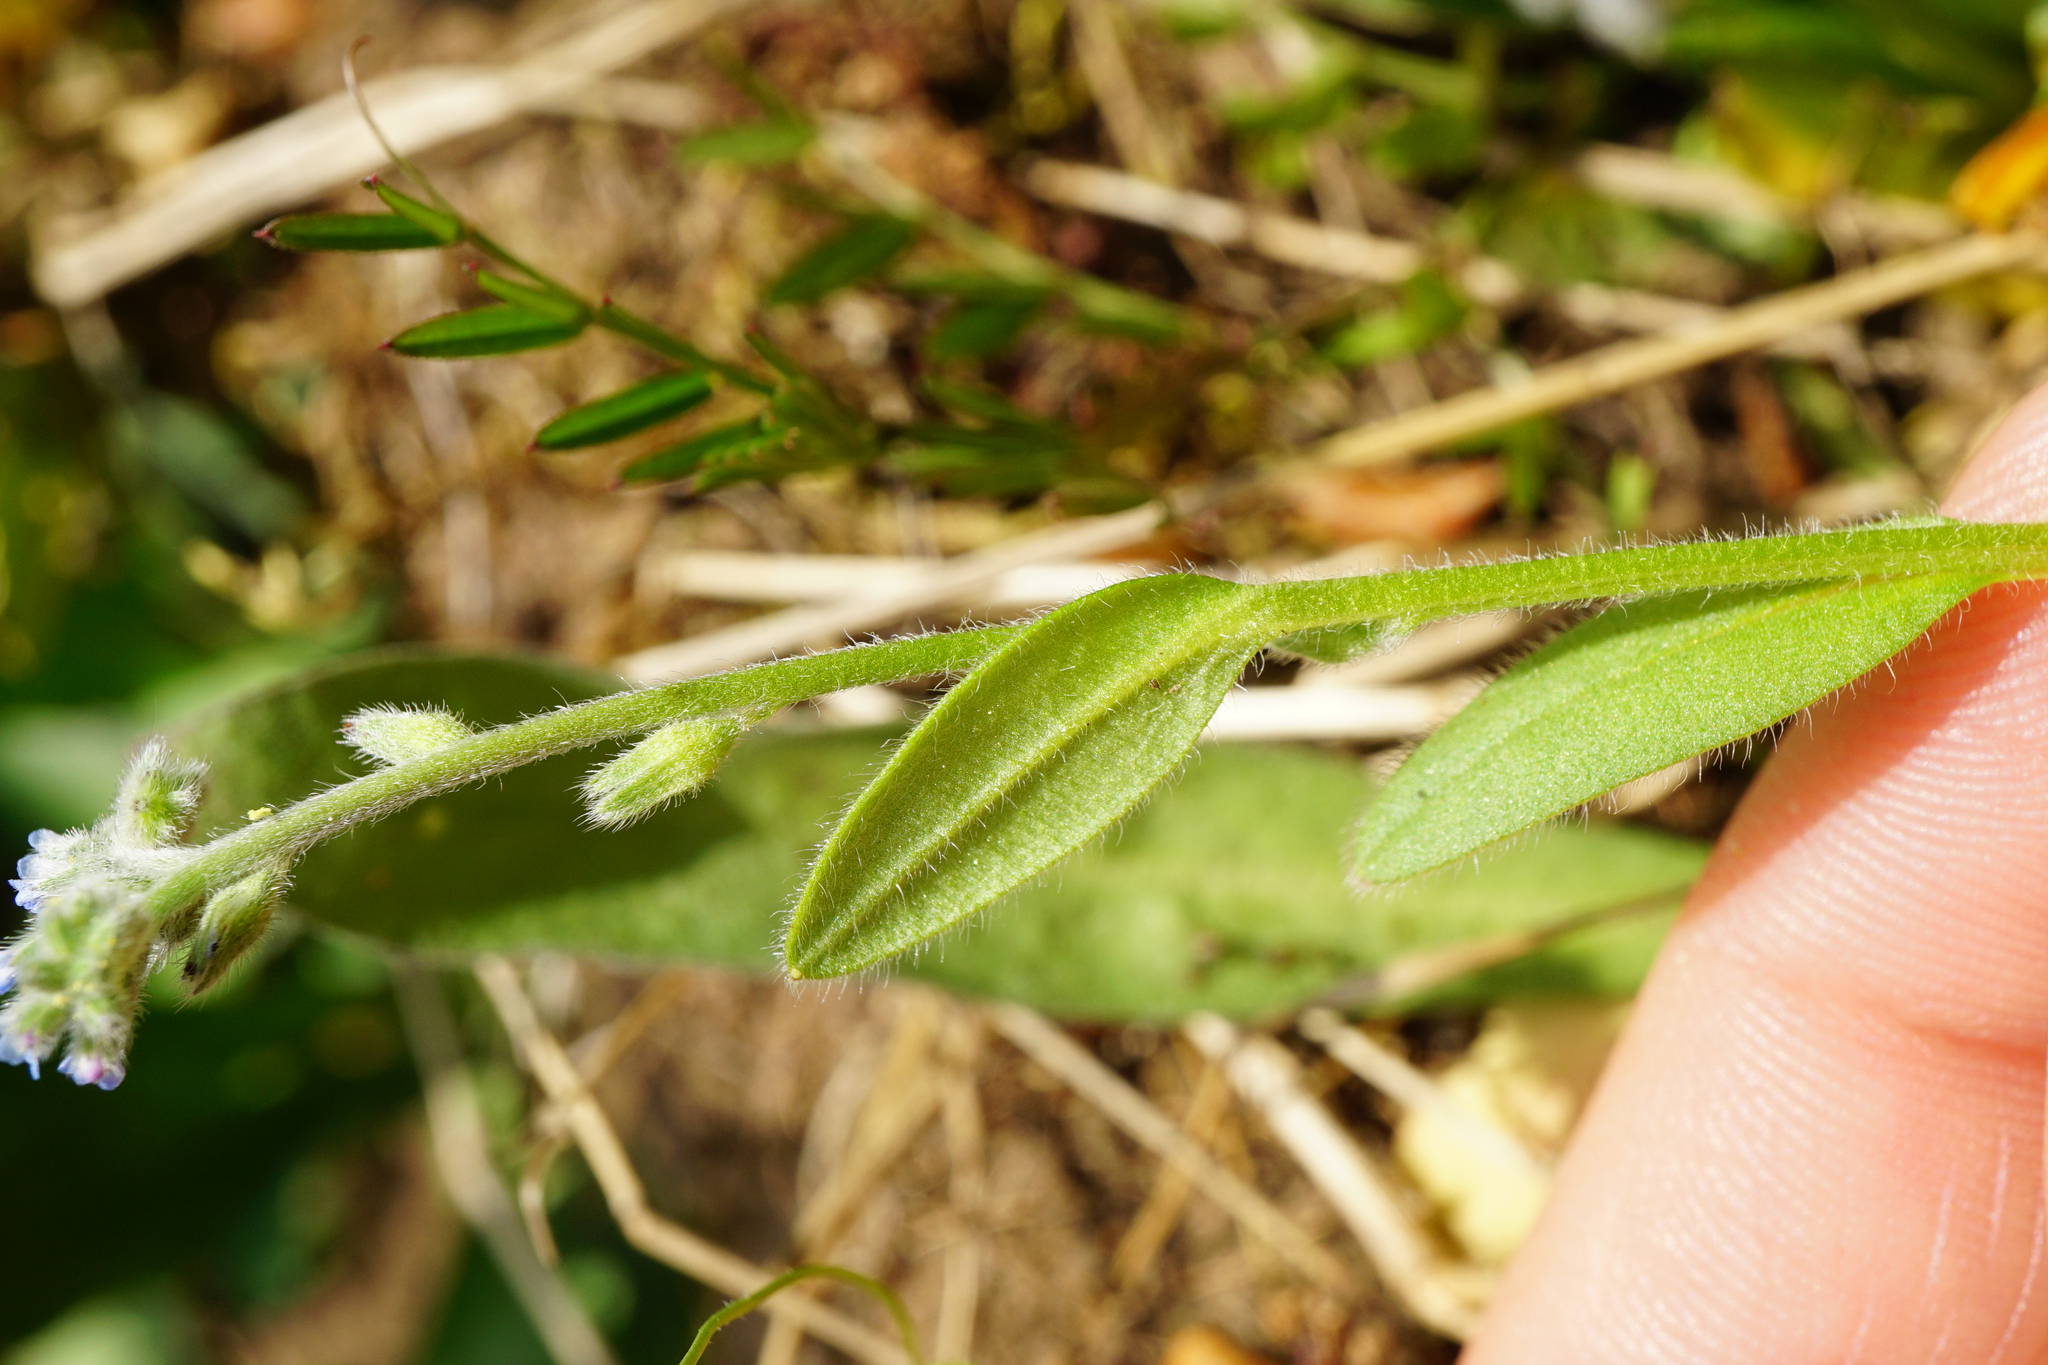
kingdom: Plantae
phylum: Tracheophyta
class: Magnoliopsida
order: Boraginales
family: Boraginaceae
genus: Myosotis
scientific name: Myosotis stricta
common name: Strict forget-me-not
